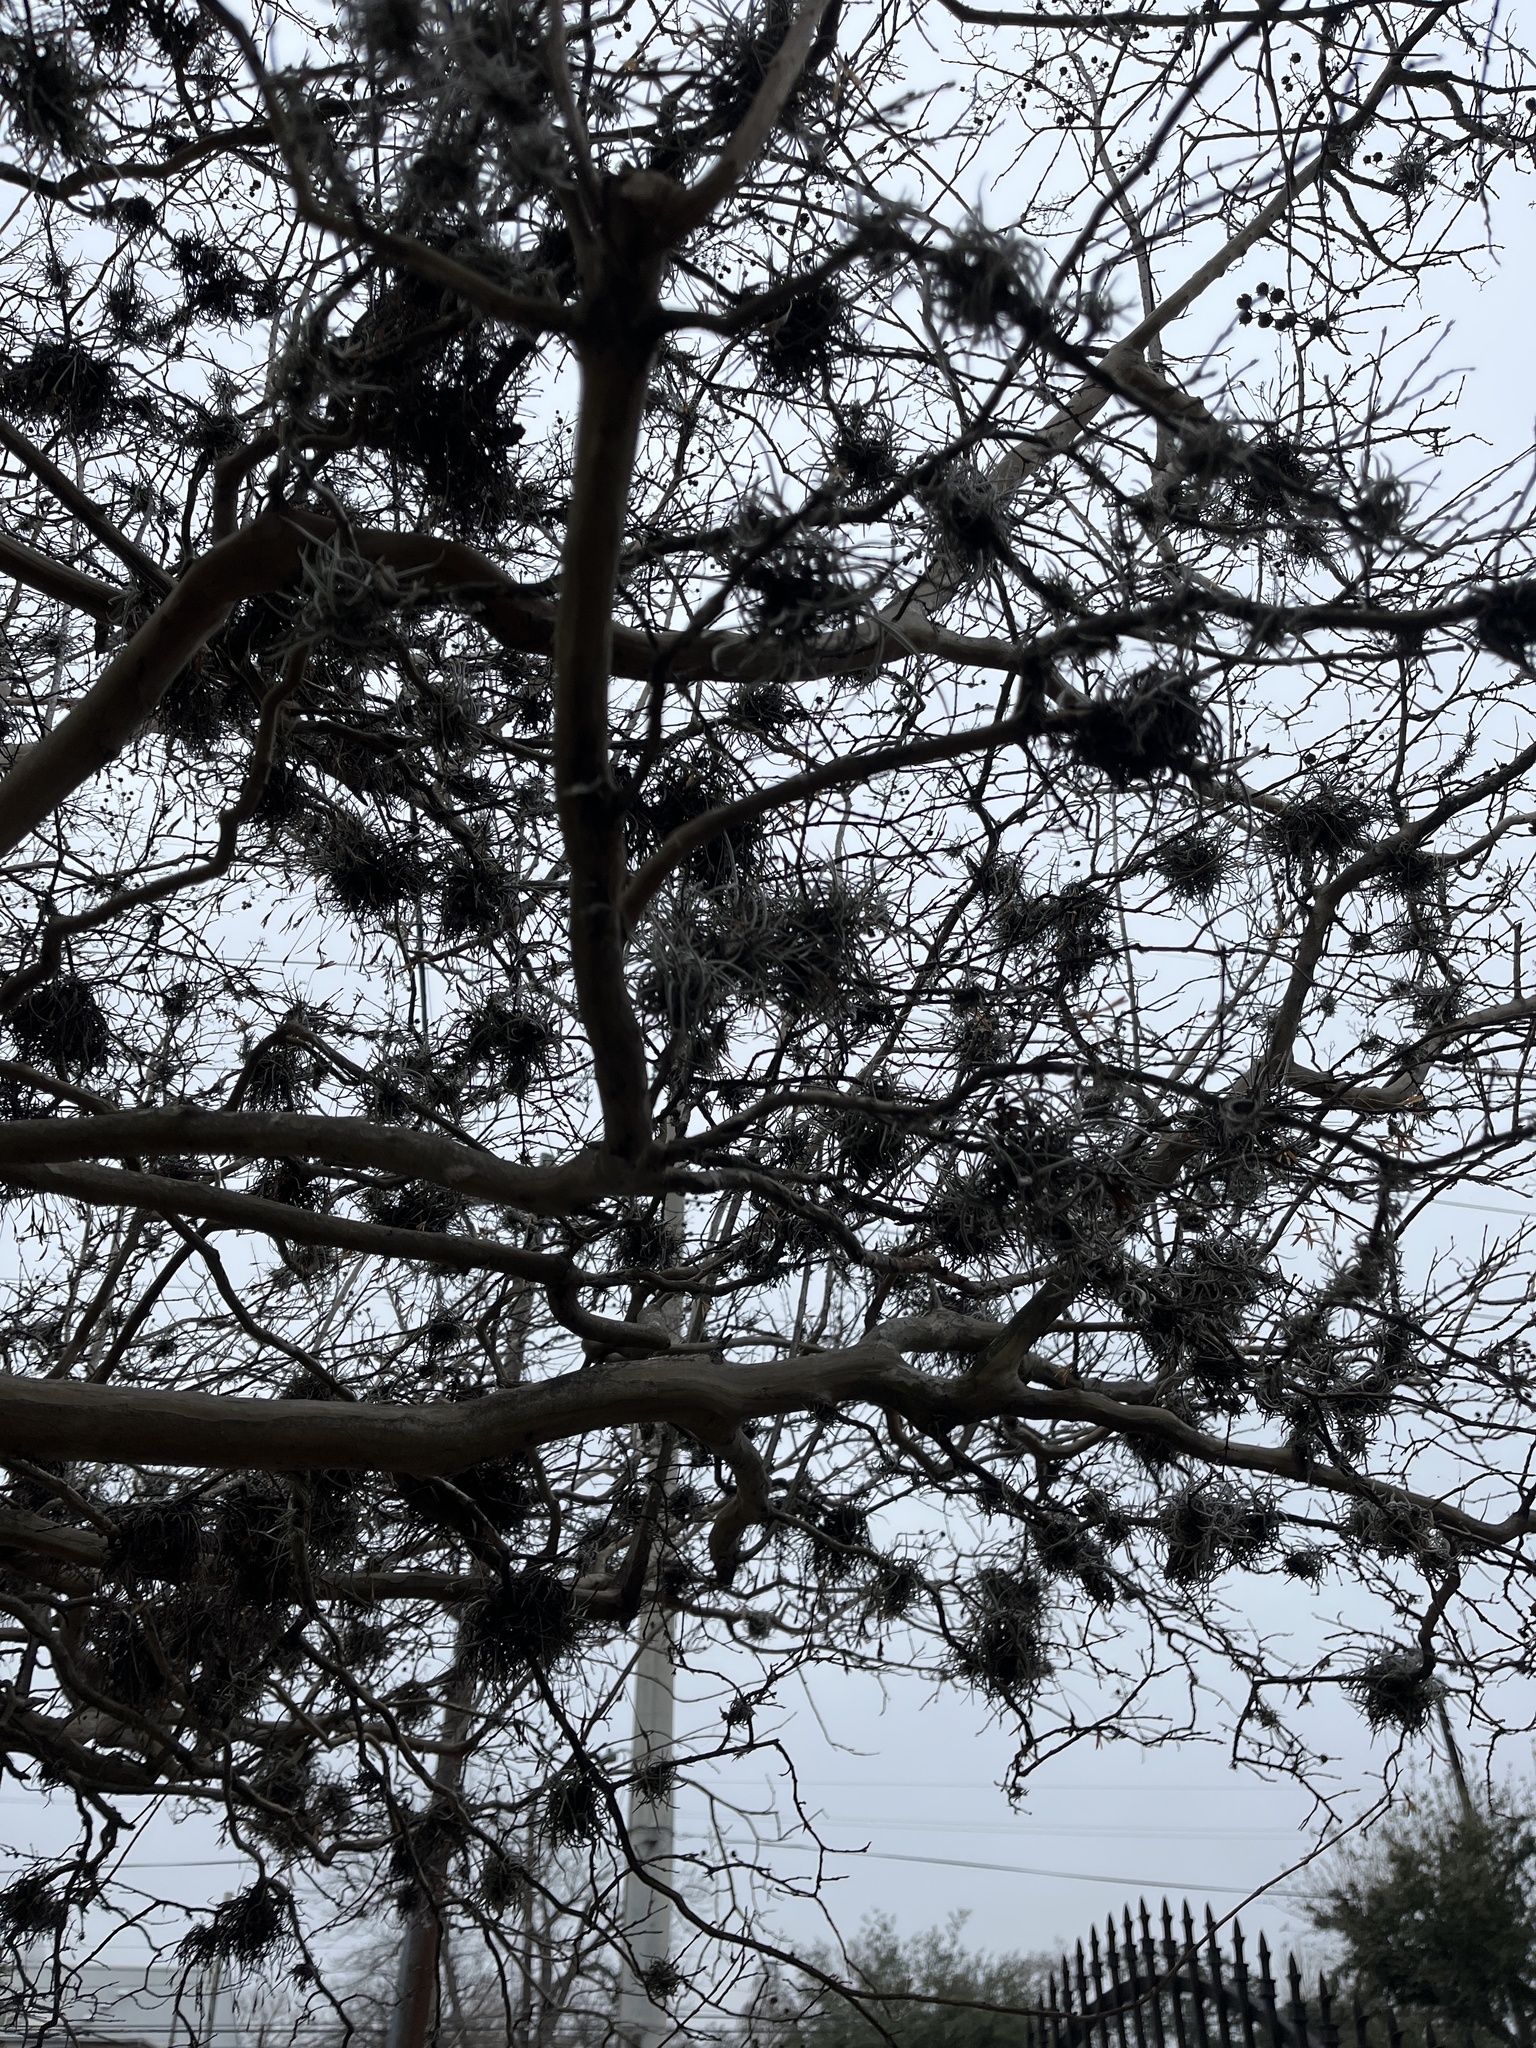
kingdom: Plantae
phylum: Tracheophyta
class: Liliopsida
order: Poales
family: Bromeliaceae
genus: Tillandsia
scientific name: Tillandsia recurvata
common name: Small ballmoss
